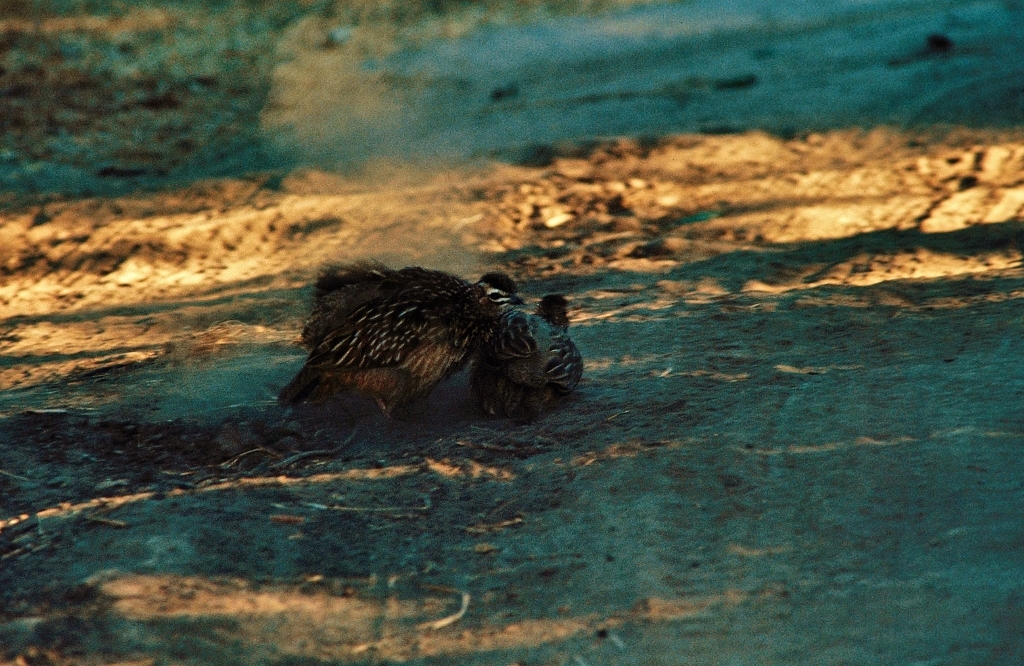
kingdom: Animalia
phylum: Chordata
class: Aves
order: Galliformes
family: Phasianidae
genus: Ortygornis
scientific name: Ortygornis sephaena
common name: Crested francolin
